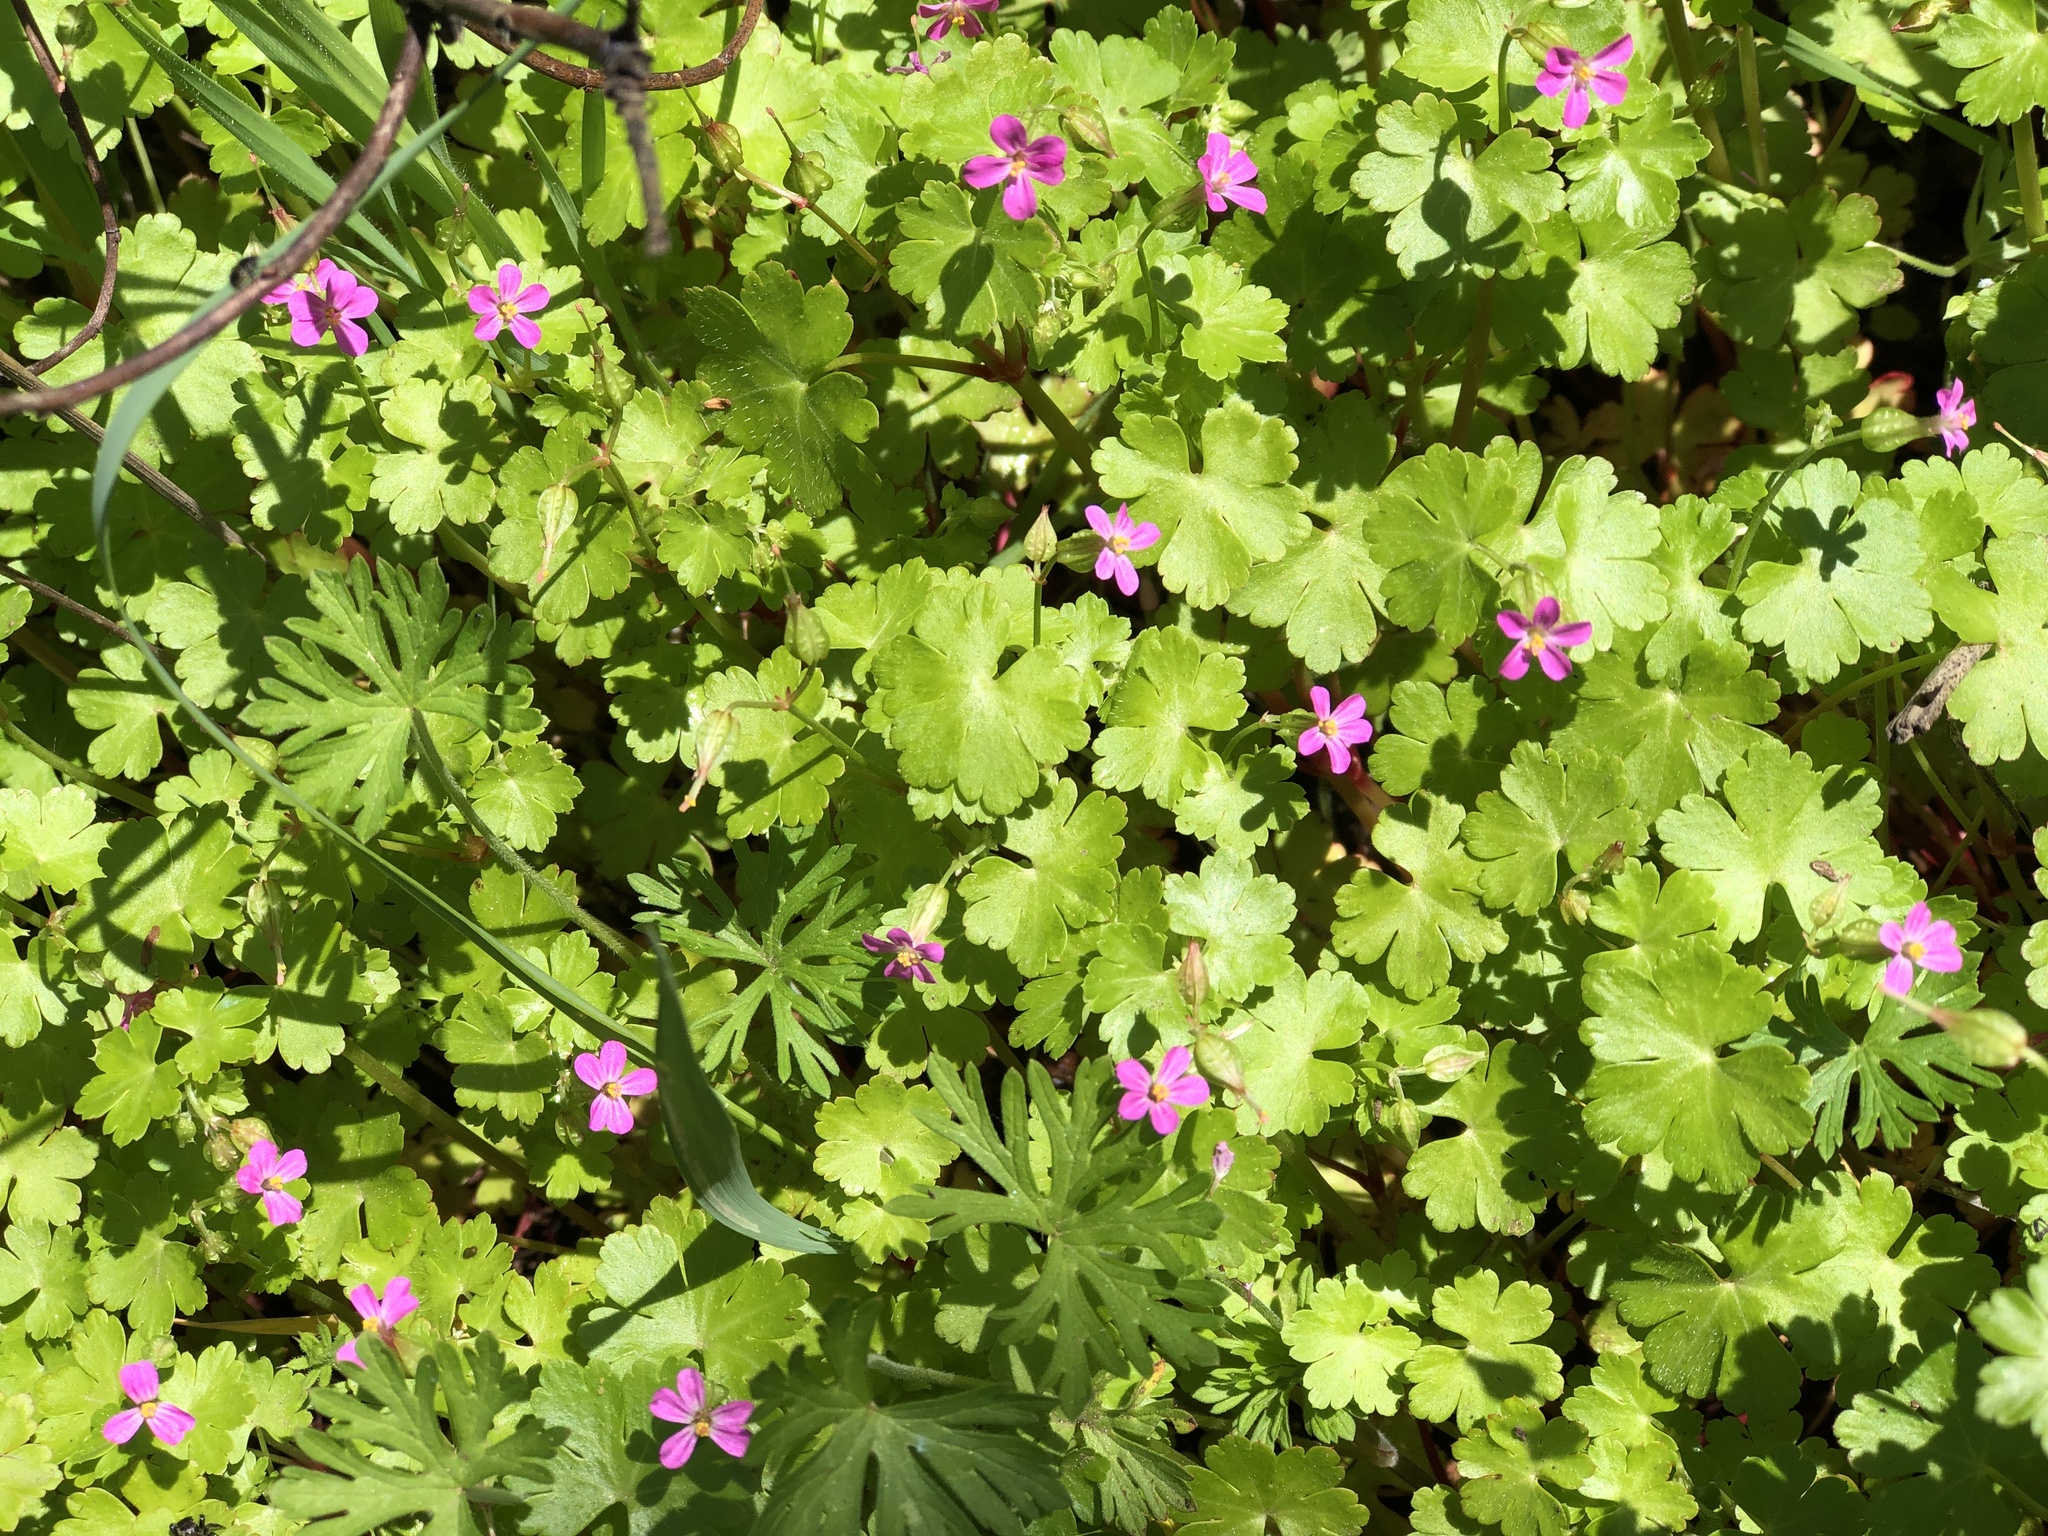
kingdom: Plantae
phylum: Tracheophyta
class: Magnoliopsida
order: Geraniales
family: Geraniaceae
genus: Geranium
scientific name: Geranium lucidum
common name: Shining crane's-bill
